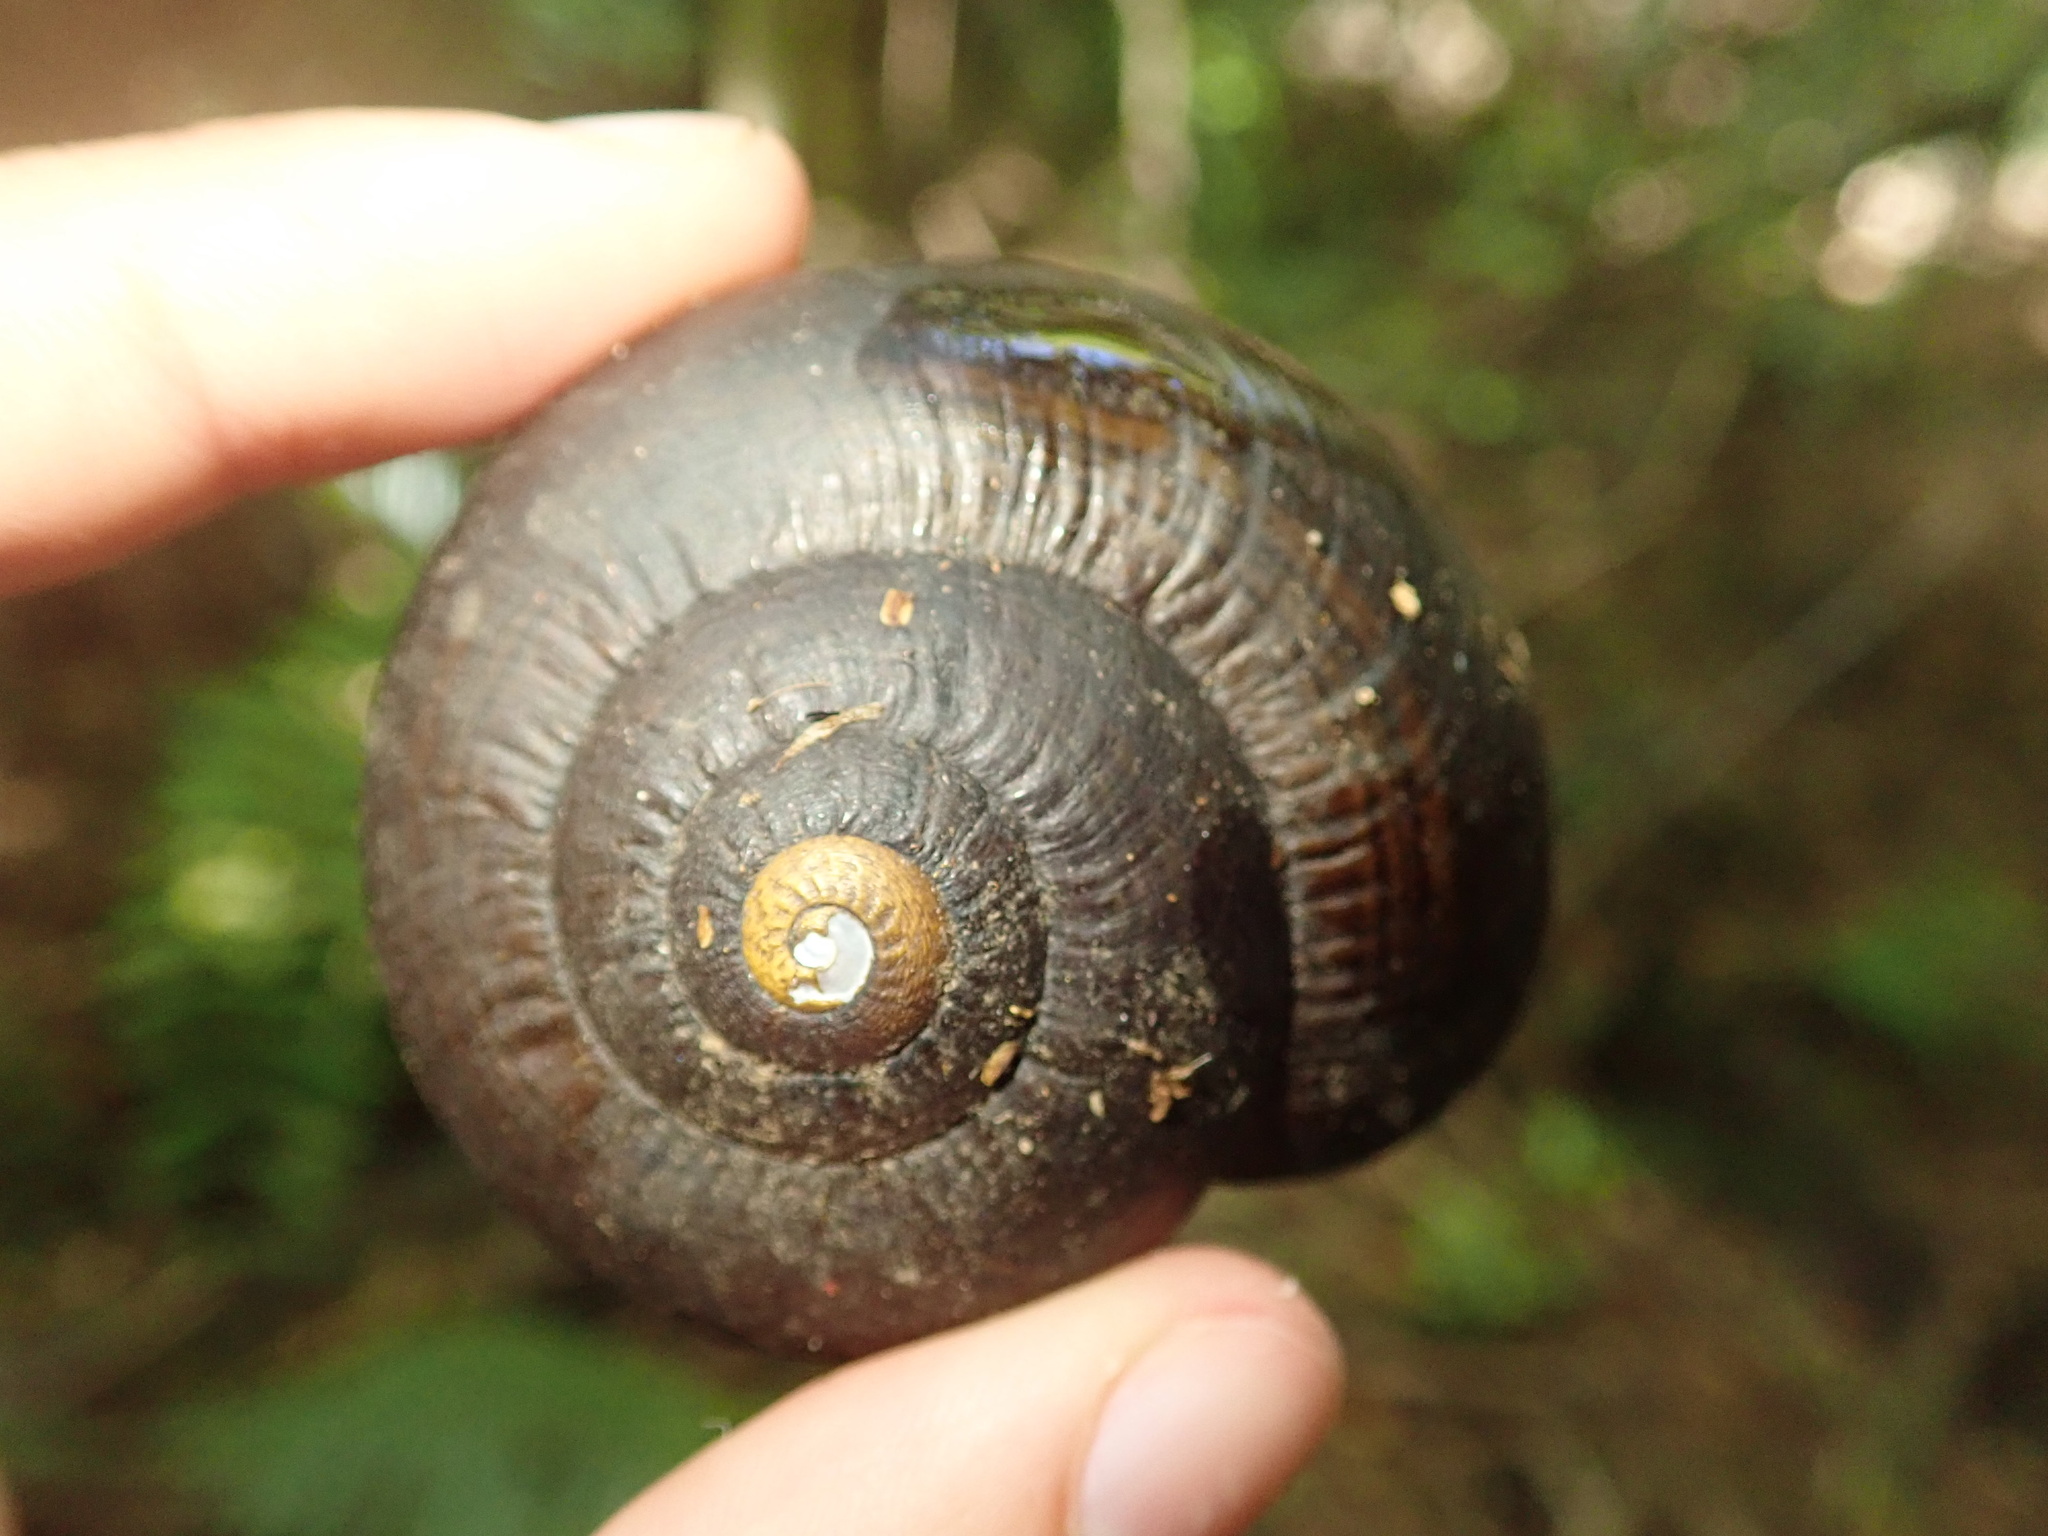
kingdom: Animalia
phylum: Mollusca
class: Gastropoda
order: Stylommatophora
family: Rhytididae
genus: Powelliphanta
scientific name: Powelliphanta gilliesi
